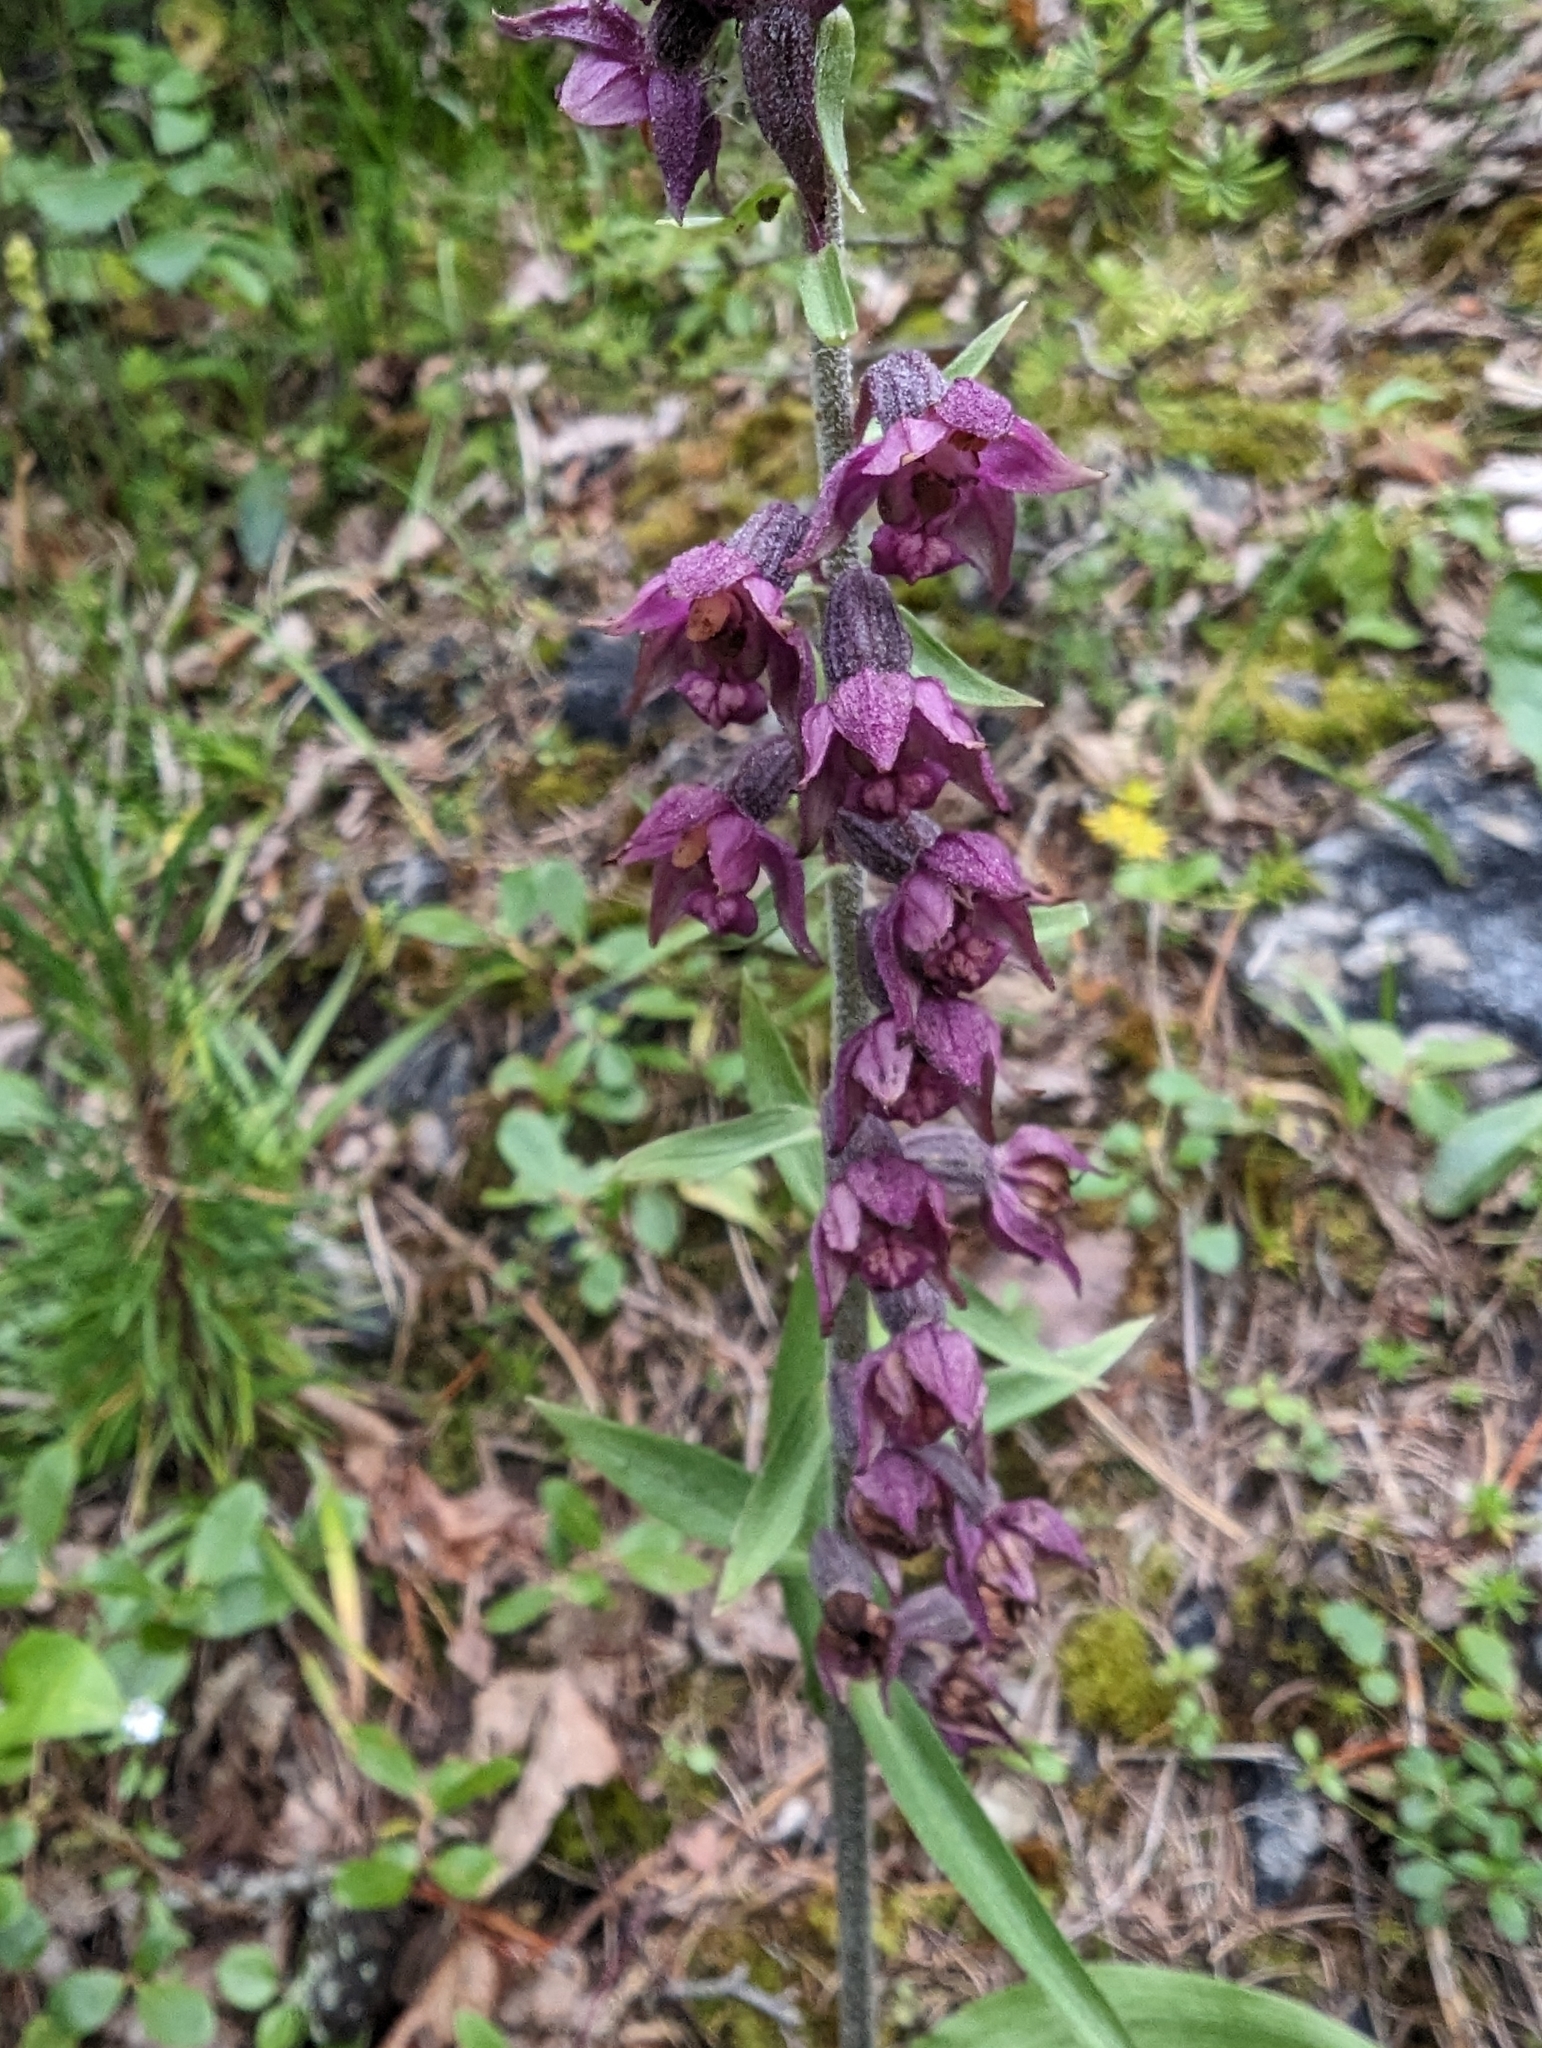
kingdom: Plantae
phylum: Tracheophyta
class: Liliopsida
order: Asparagales
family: Orchidaceae
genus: Epipactis
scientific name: Epipactis atrorubens
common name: Dark-red helleborine
